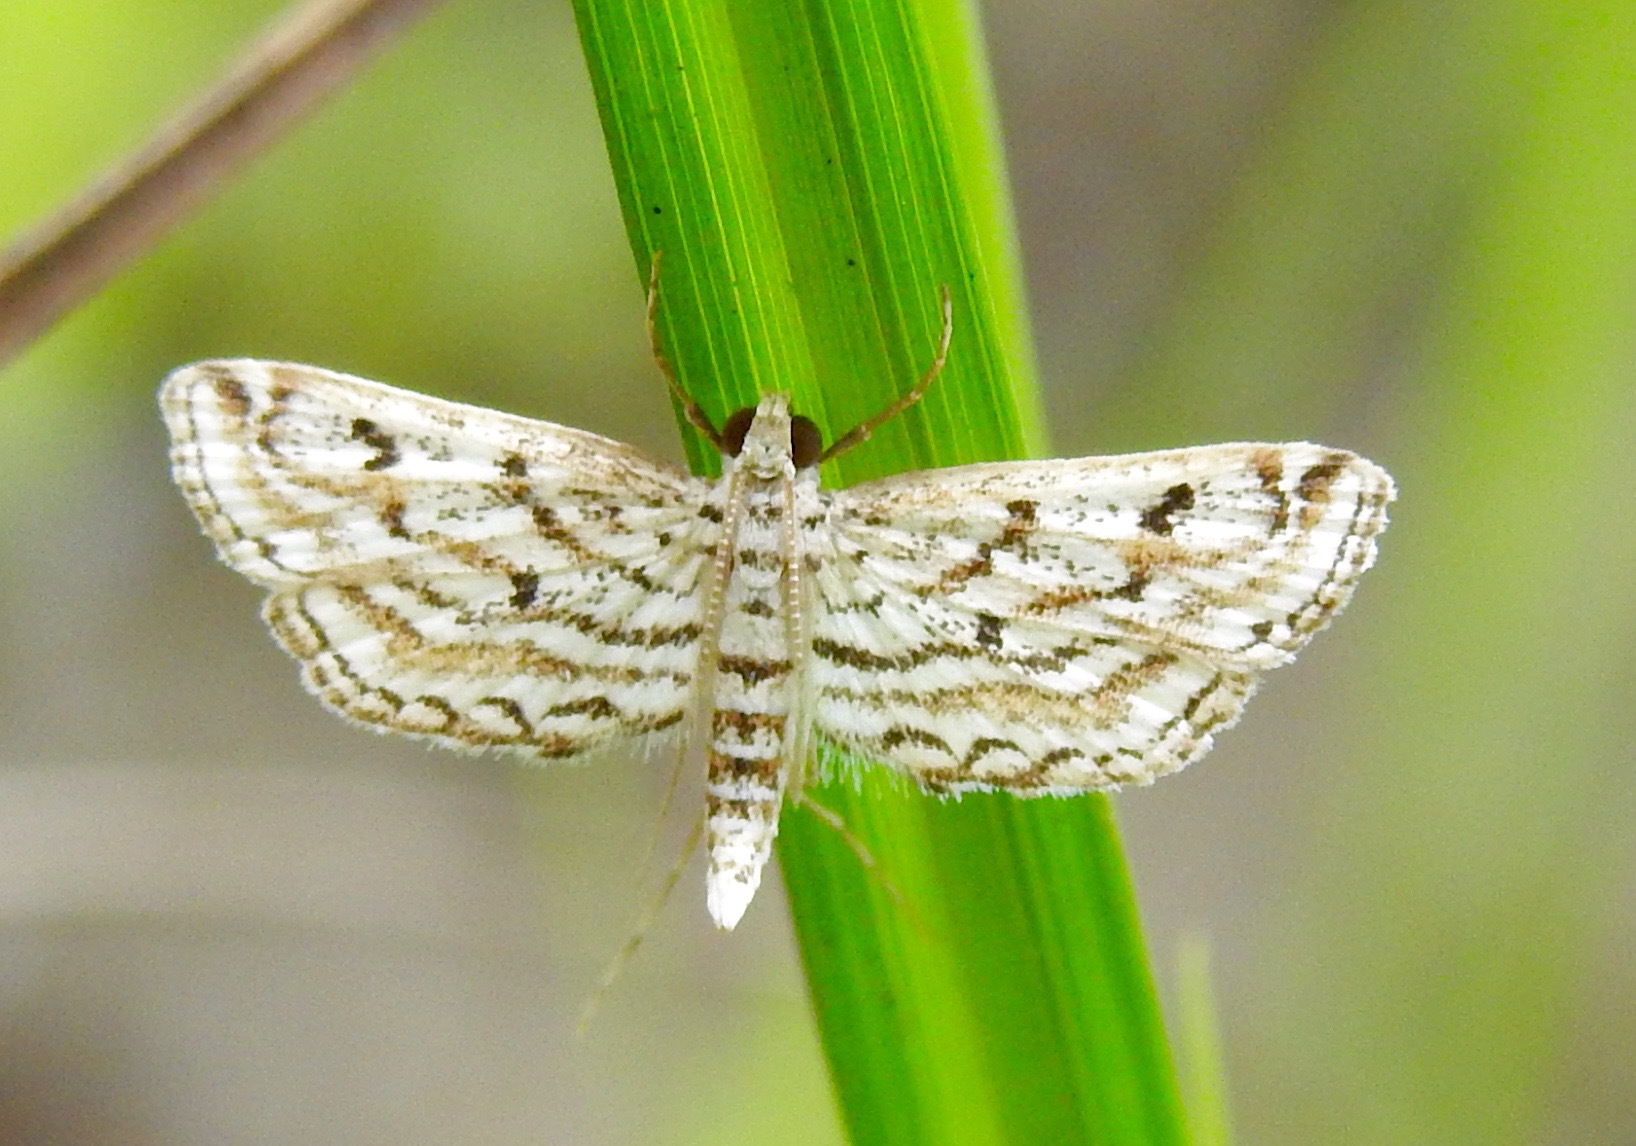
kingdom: Animalia
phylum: Arthropoda
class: Insecta
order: Lepidoptera
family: Crambidae
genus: Parapoynx
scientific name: Parapoynx allionealis
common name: Bladderwort casemaker
